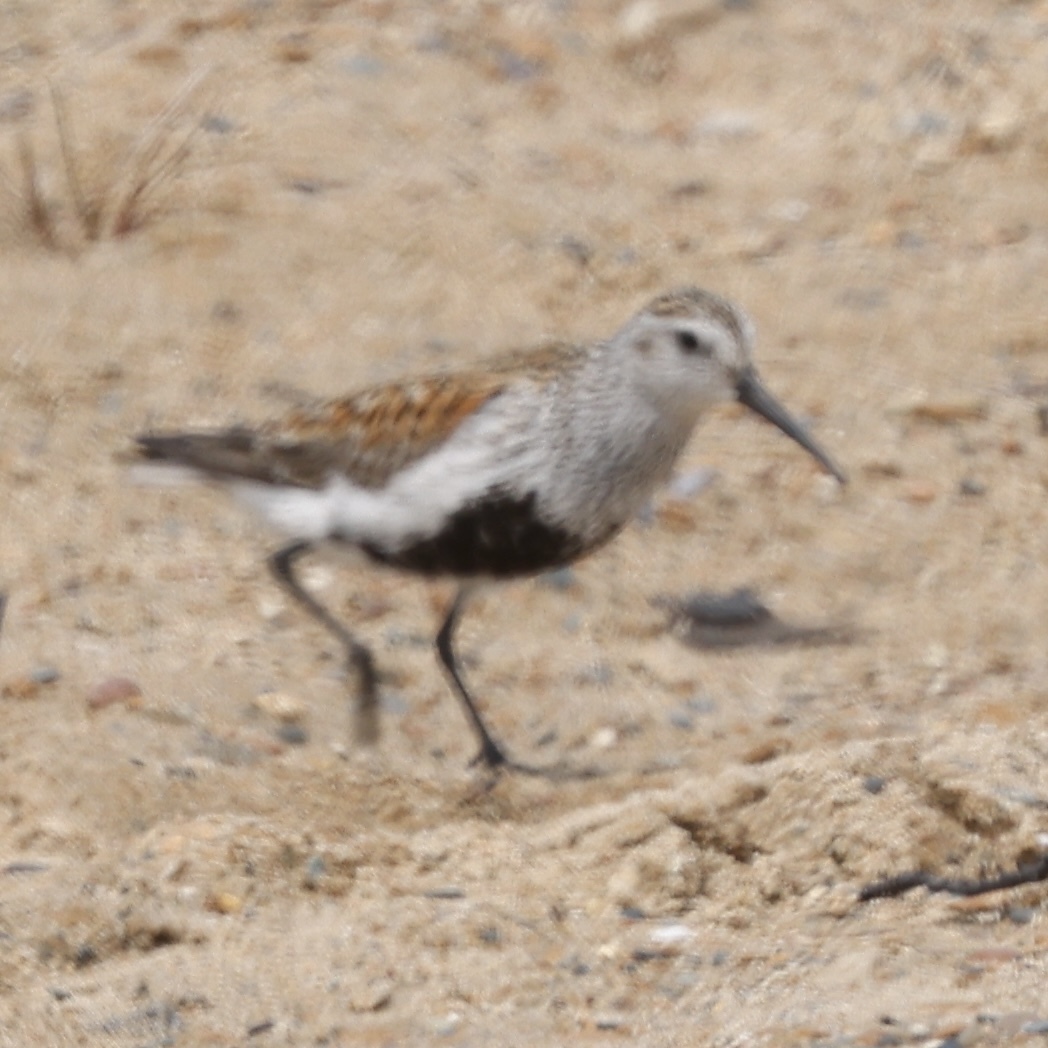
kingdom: Animalia
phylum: Chordata
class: Aves
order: Charadriiformes
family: Scolopacidae
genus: Calidris
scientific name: Calidris alpina
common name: Dunlin
